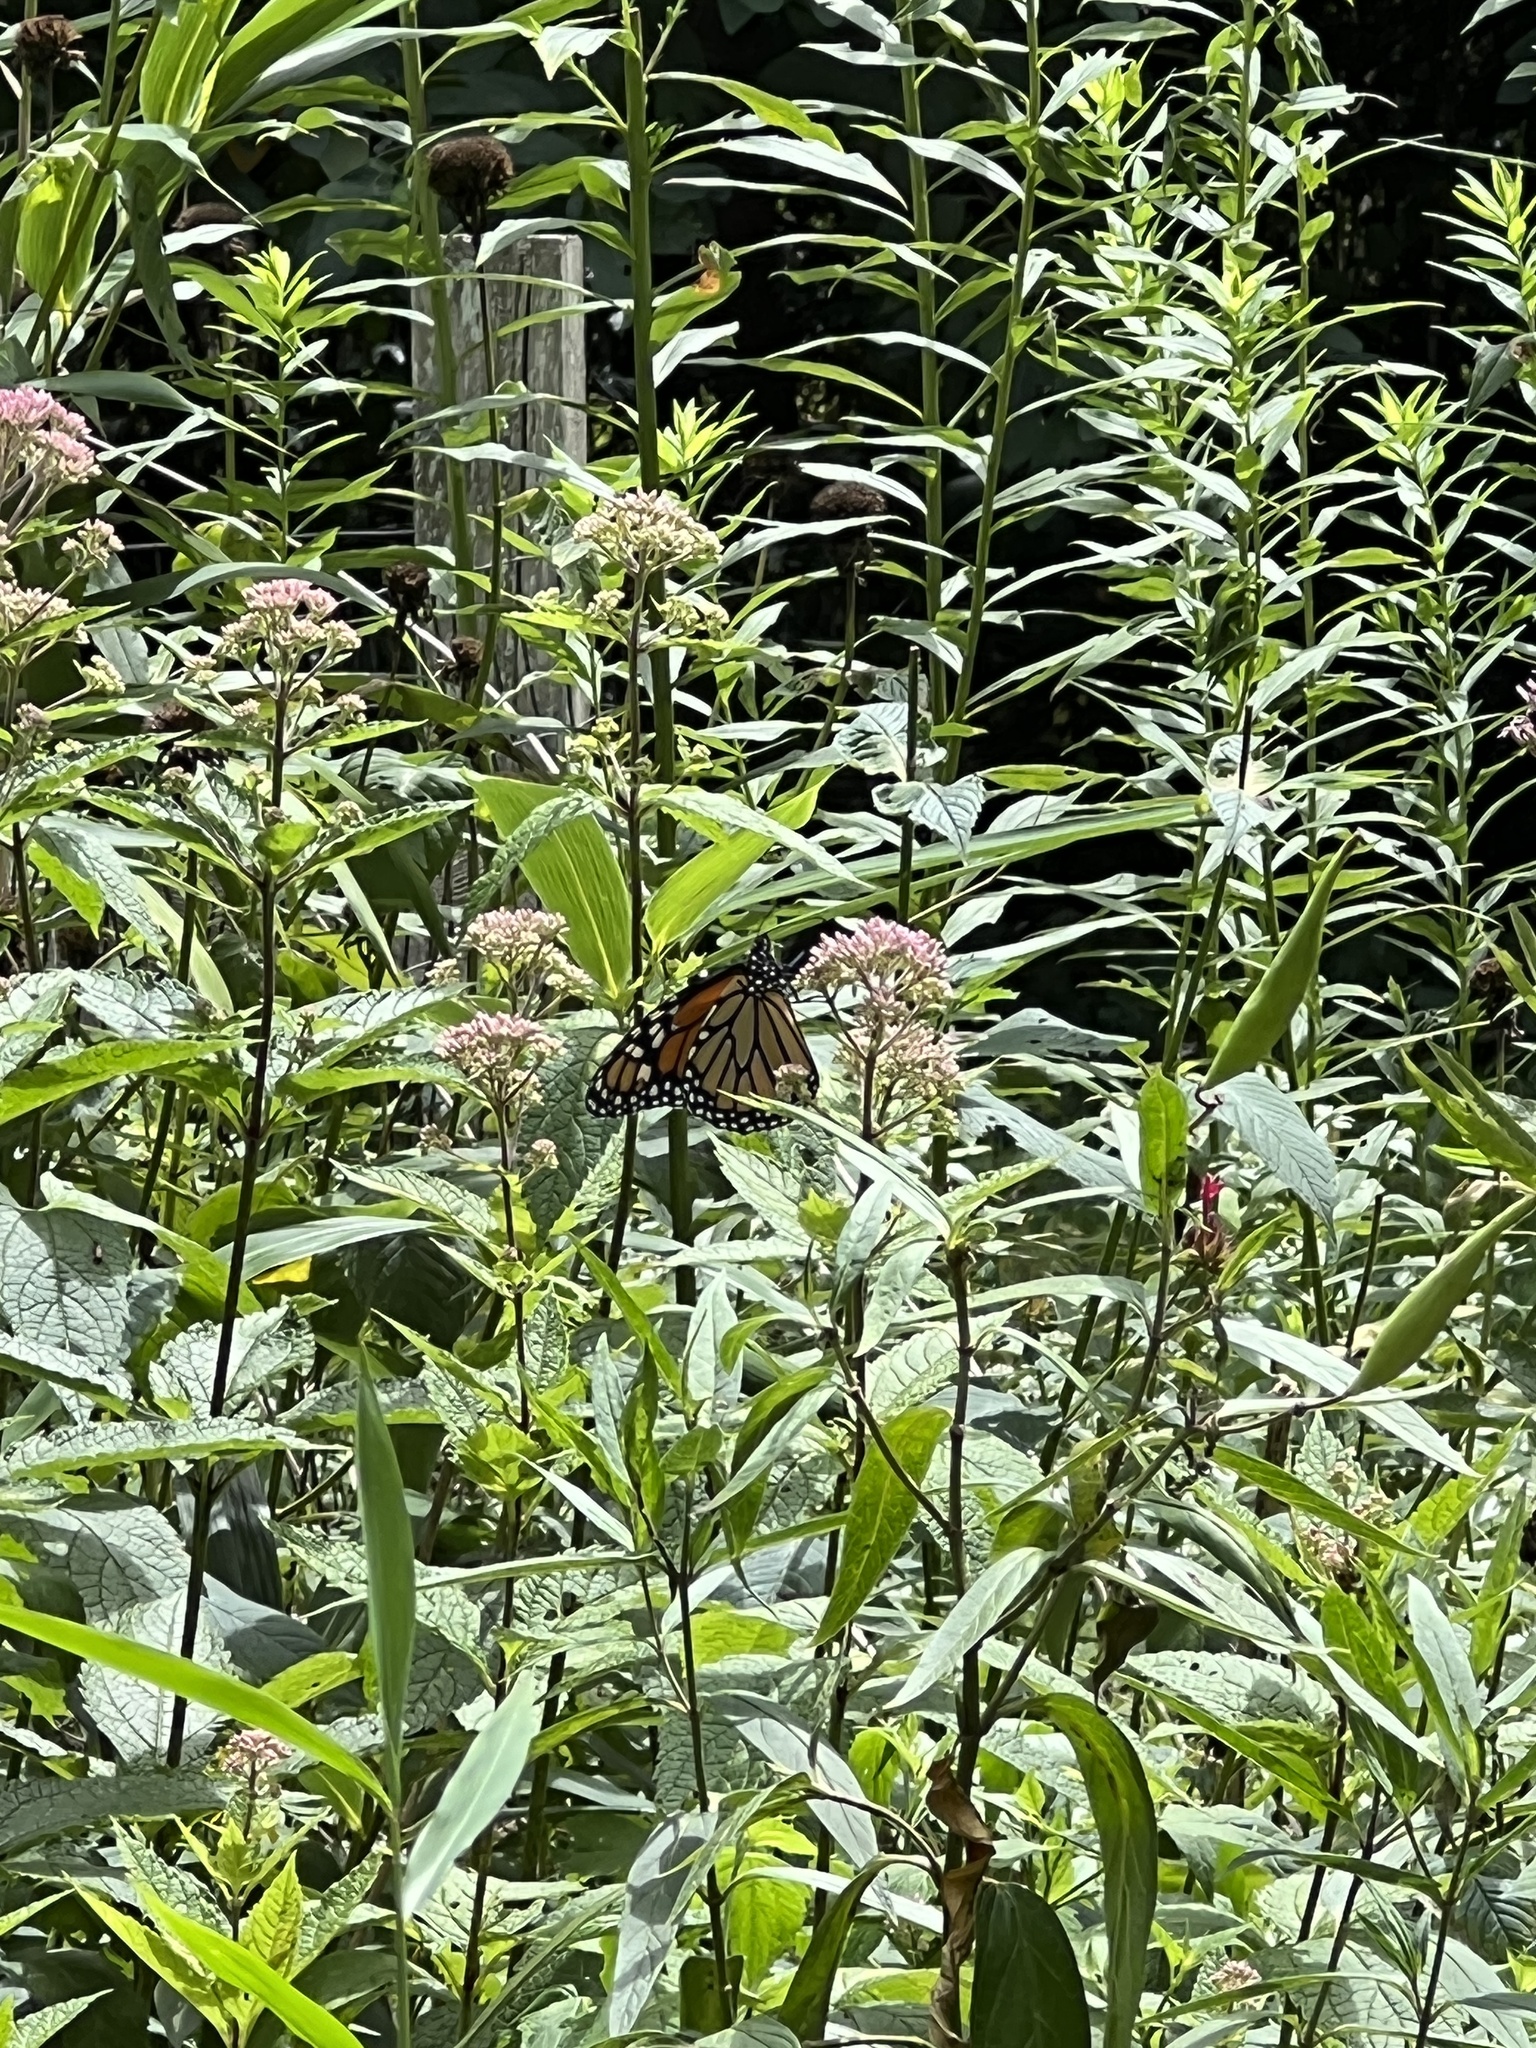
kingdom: Animalia
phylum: Arthropoda
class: Insecta
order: Lepidoptera
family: Nymphalidae
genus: Danaus
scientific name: Danaus plexippus
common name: Monarch
